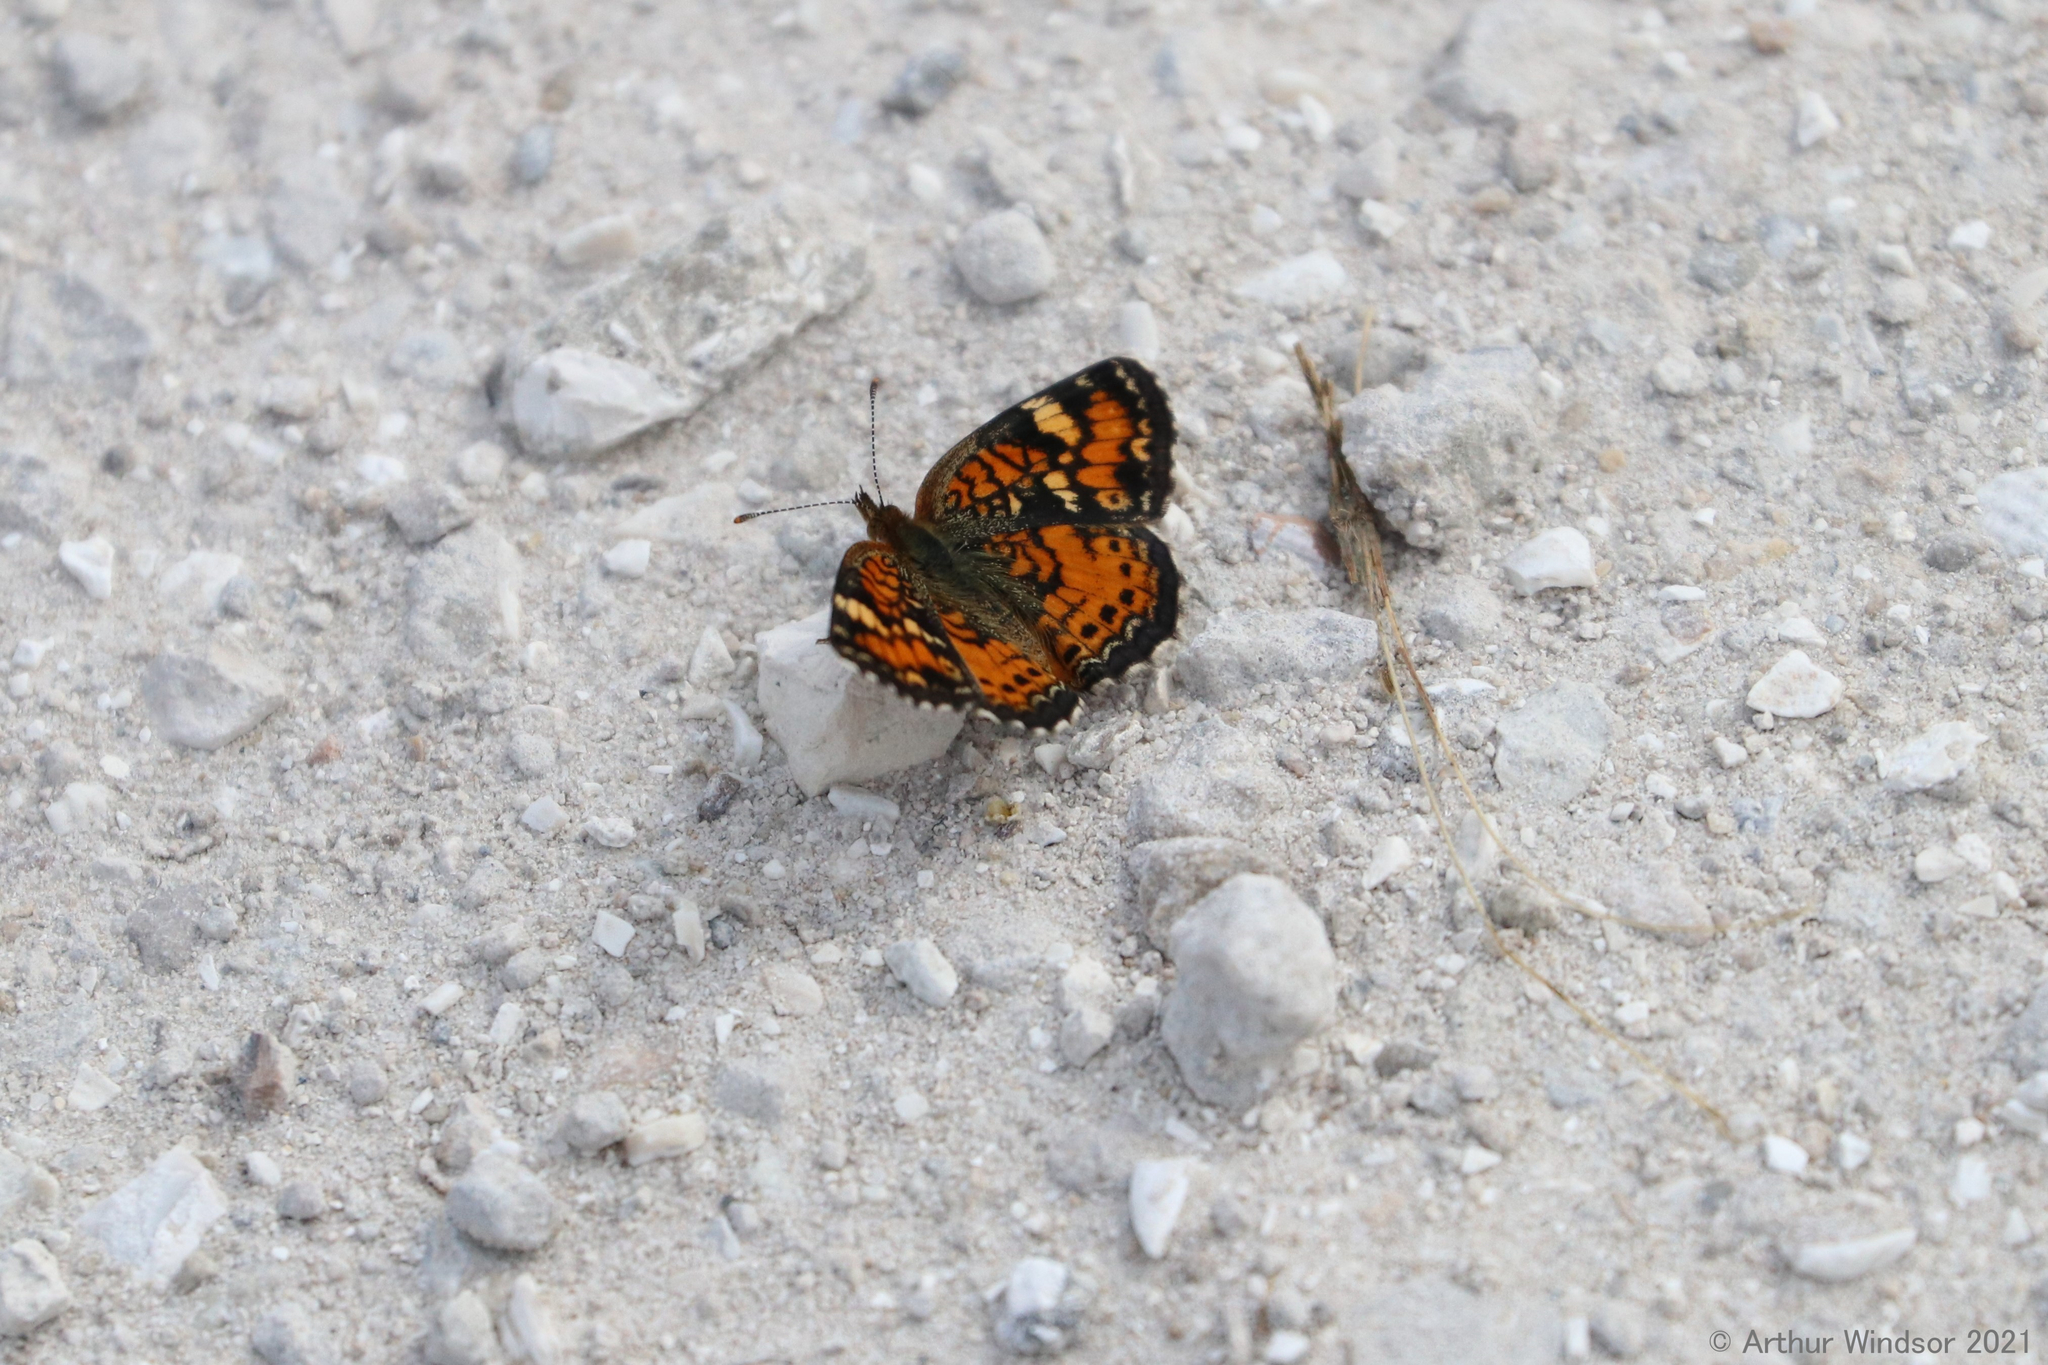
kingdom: Animalia
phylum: Arthropoda
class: Insecta
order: Lepidoptera
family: Nymphalidae
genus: Phyciodes
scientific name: Phyciodes phaon
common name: Phaon crescent
